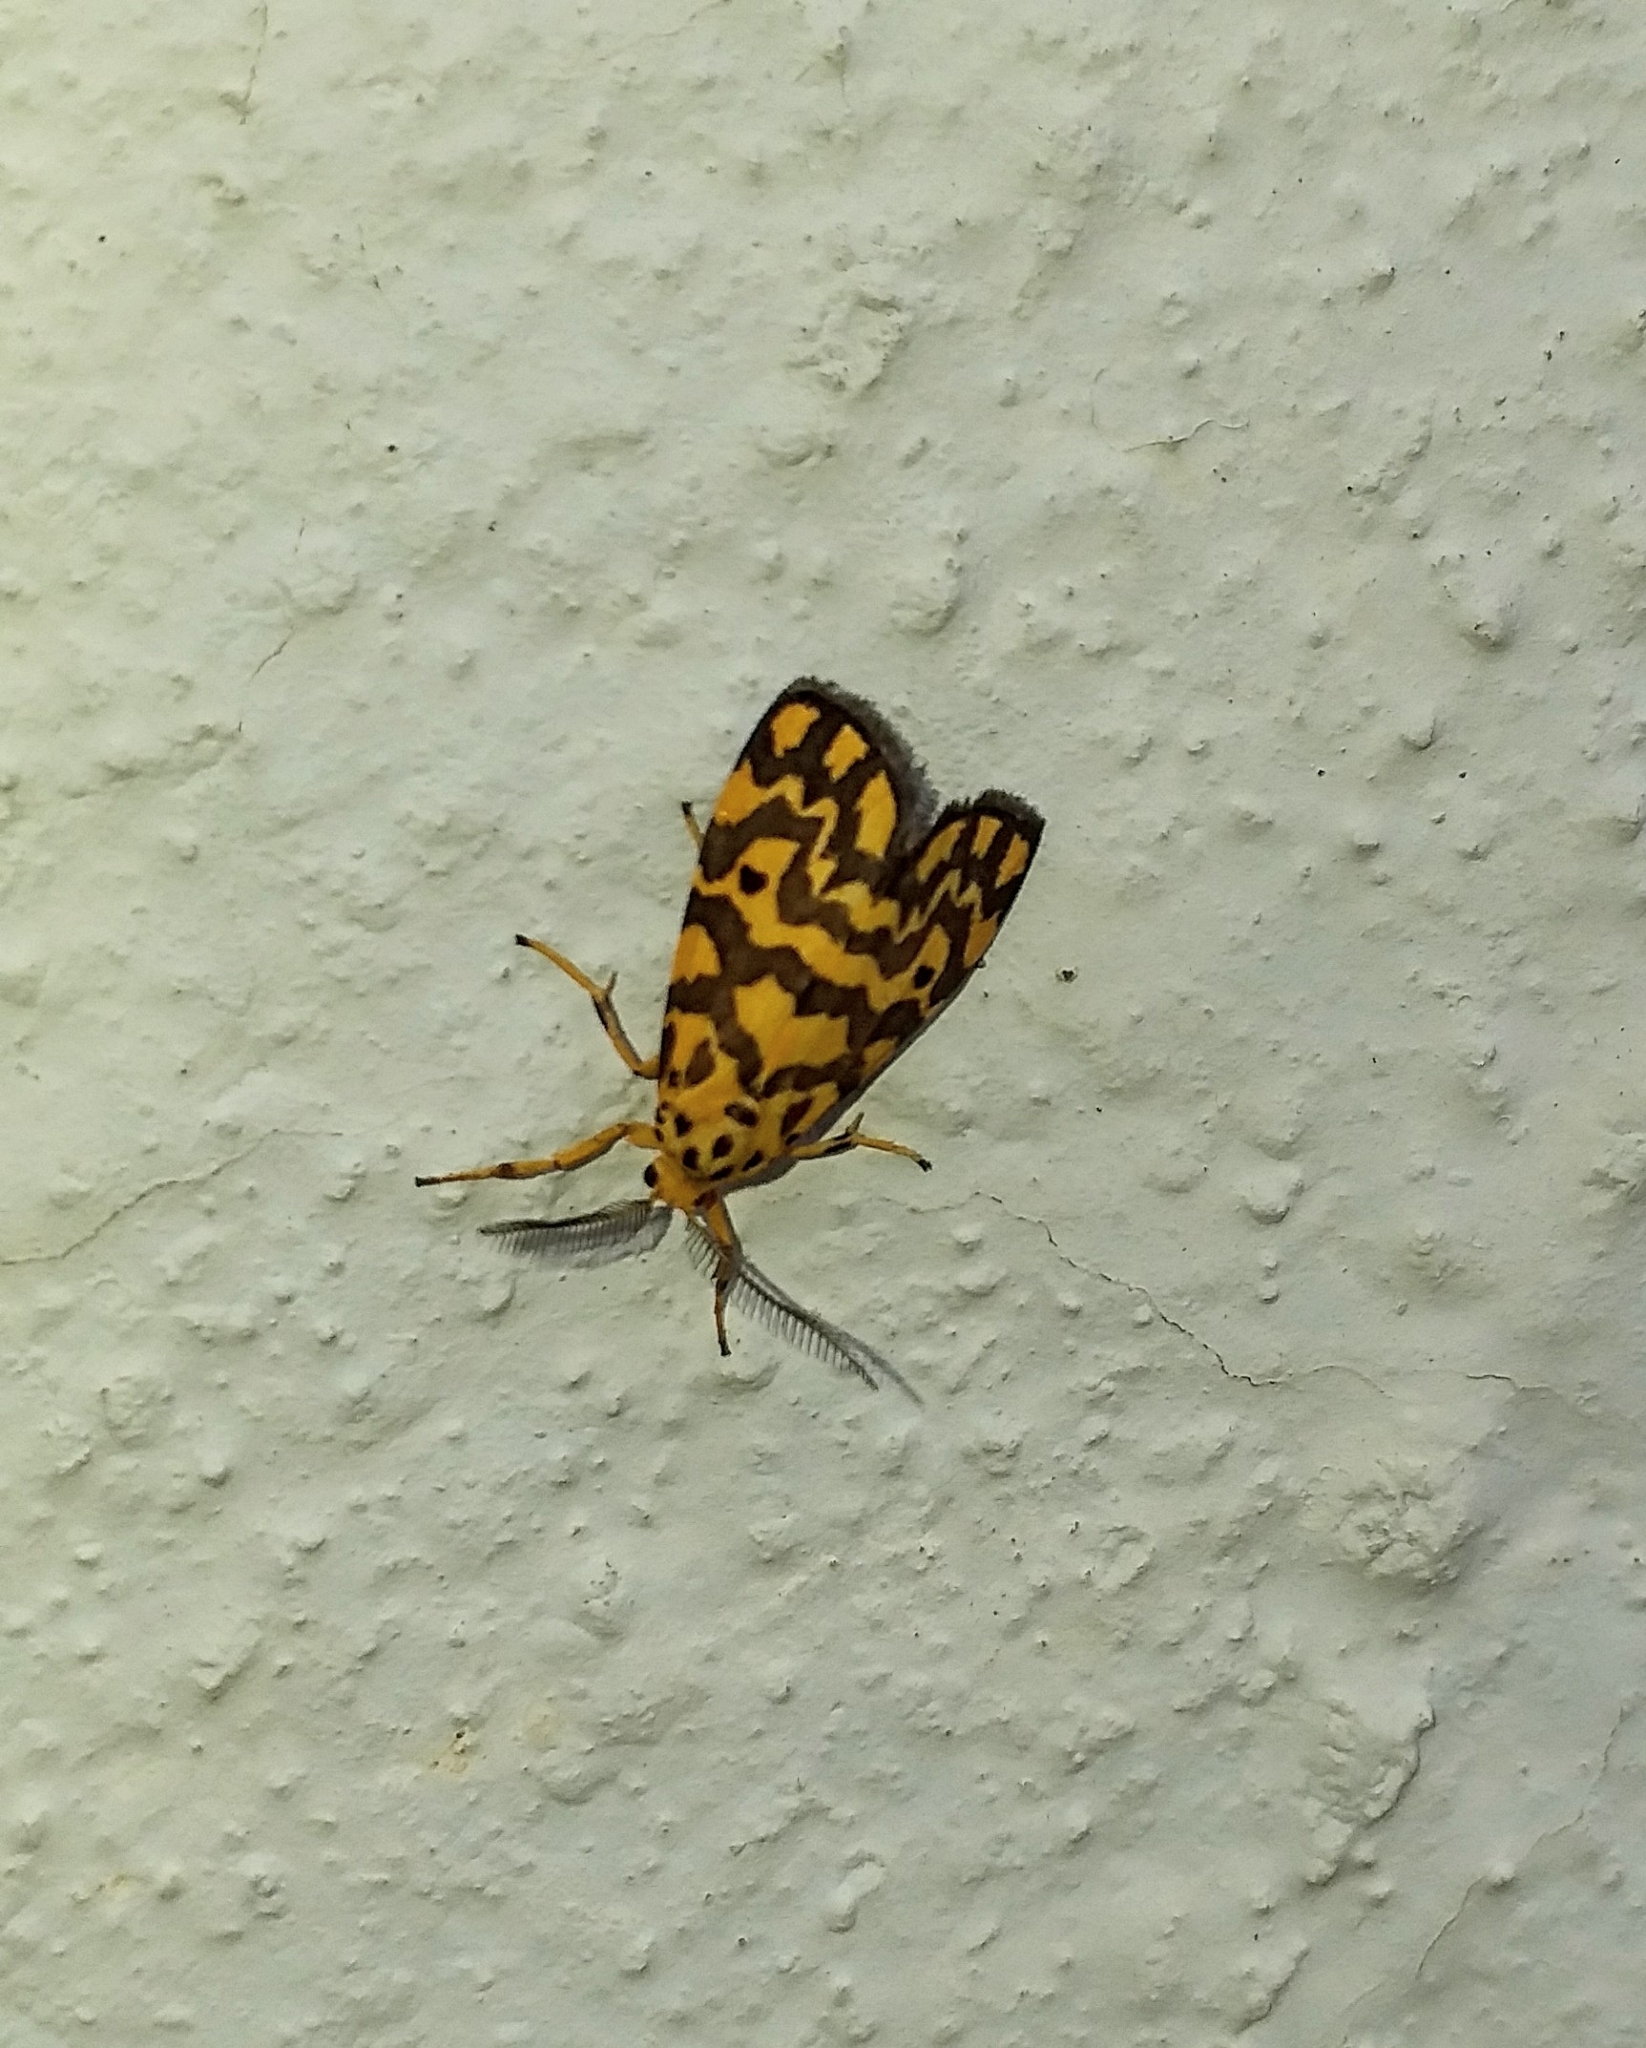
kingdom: Animalia
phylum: Arthropoda
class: Insecta
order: Lepidoptera
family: Erebidae
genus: Nepita
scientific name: Nepita conferta
